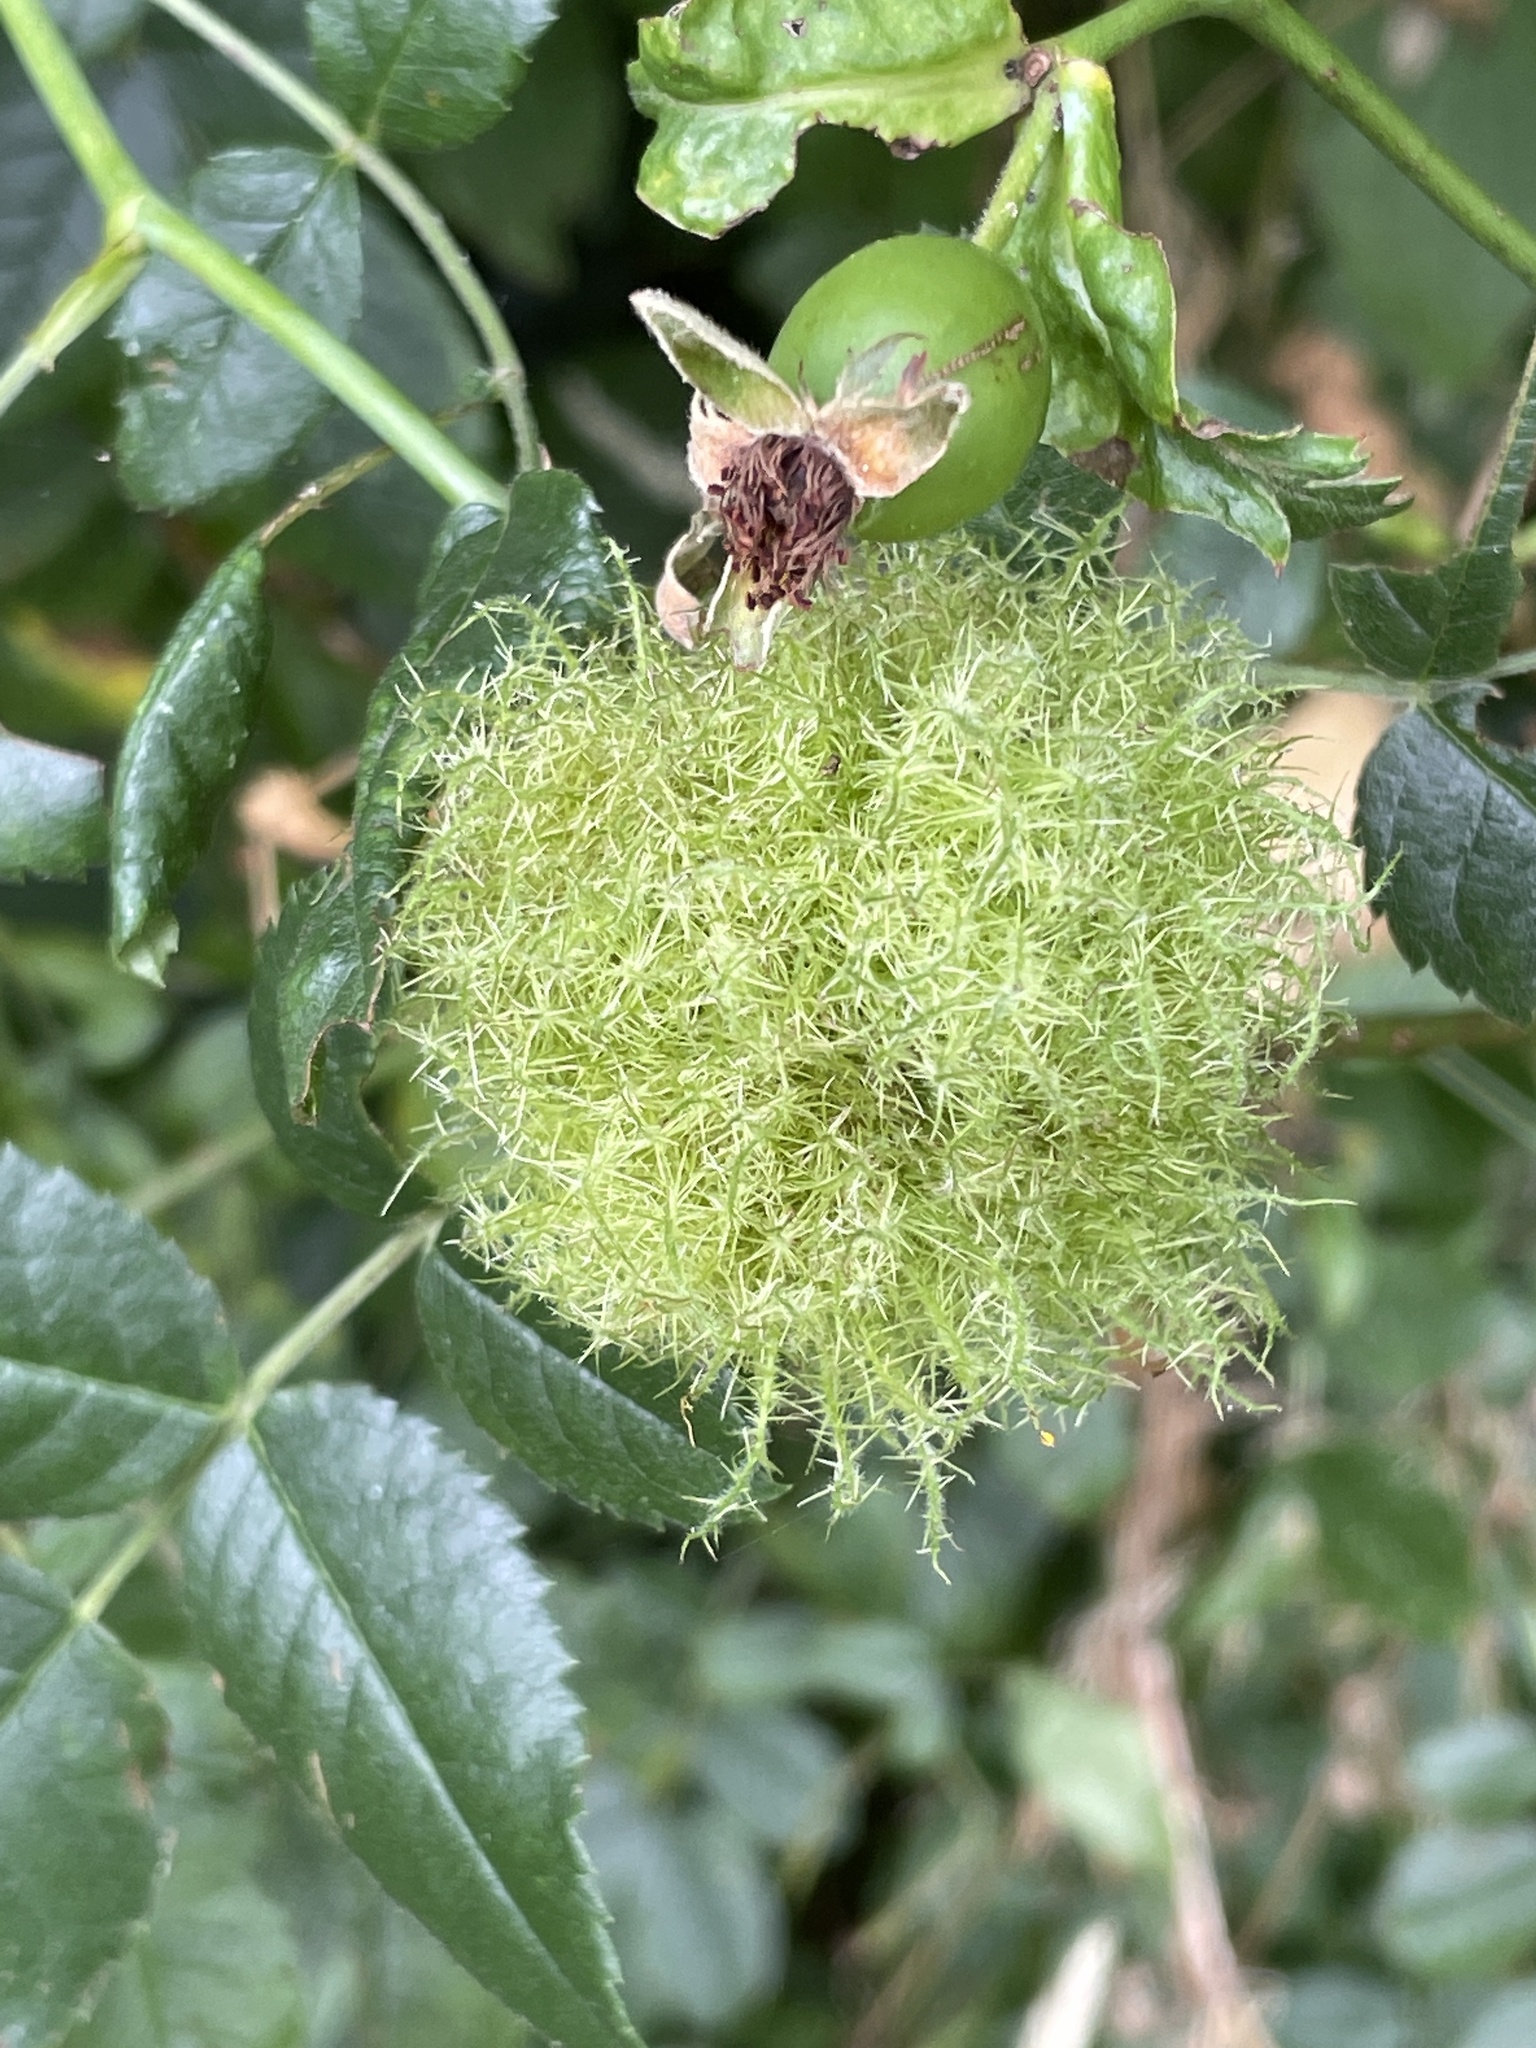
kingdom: Animalia
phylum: Arthropoda
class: Insecta
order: Hymenoptera
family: Cynipidae
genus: Diplolepis
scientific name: Diplolepis rosae
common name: Bedeguar gall
